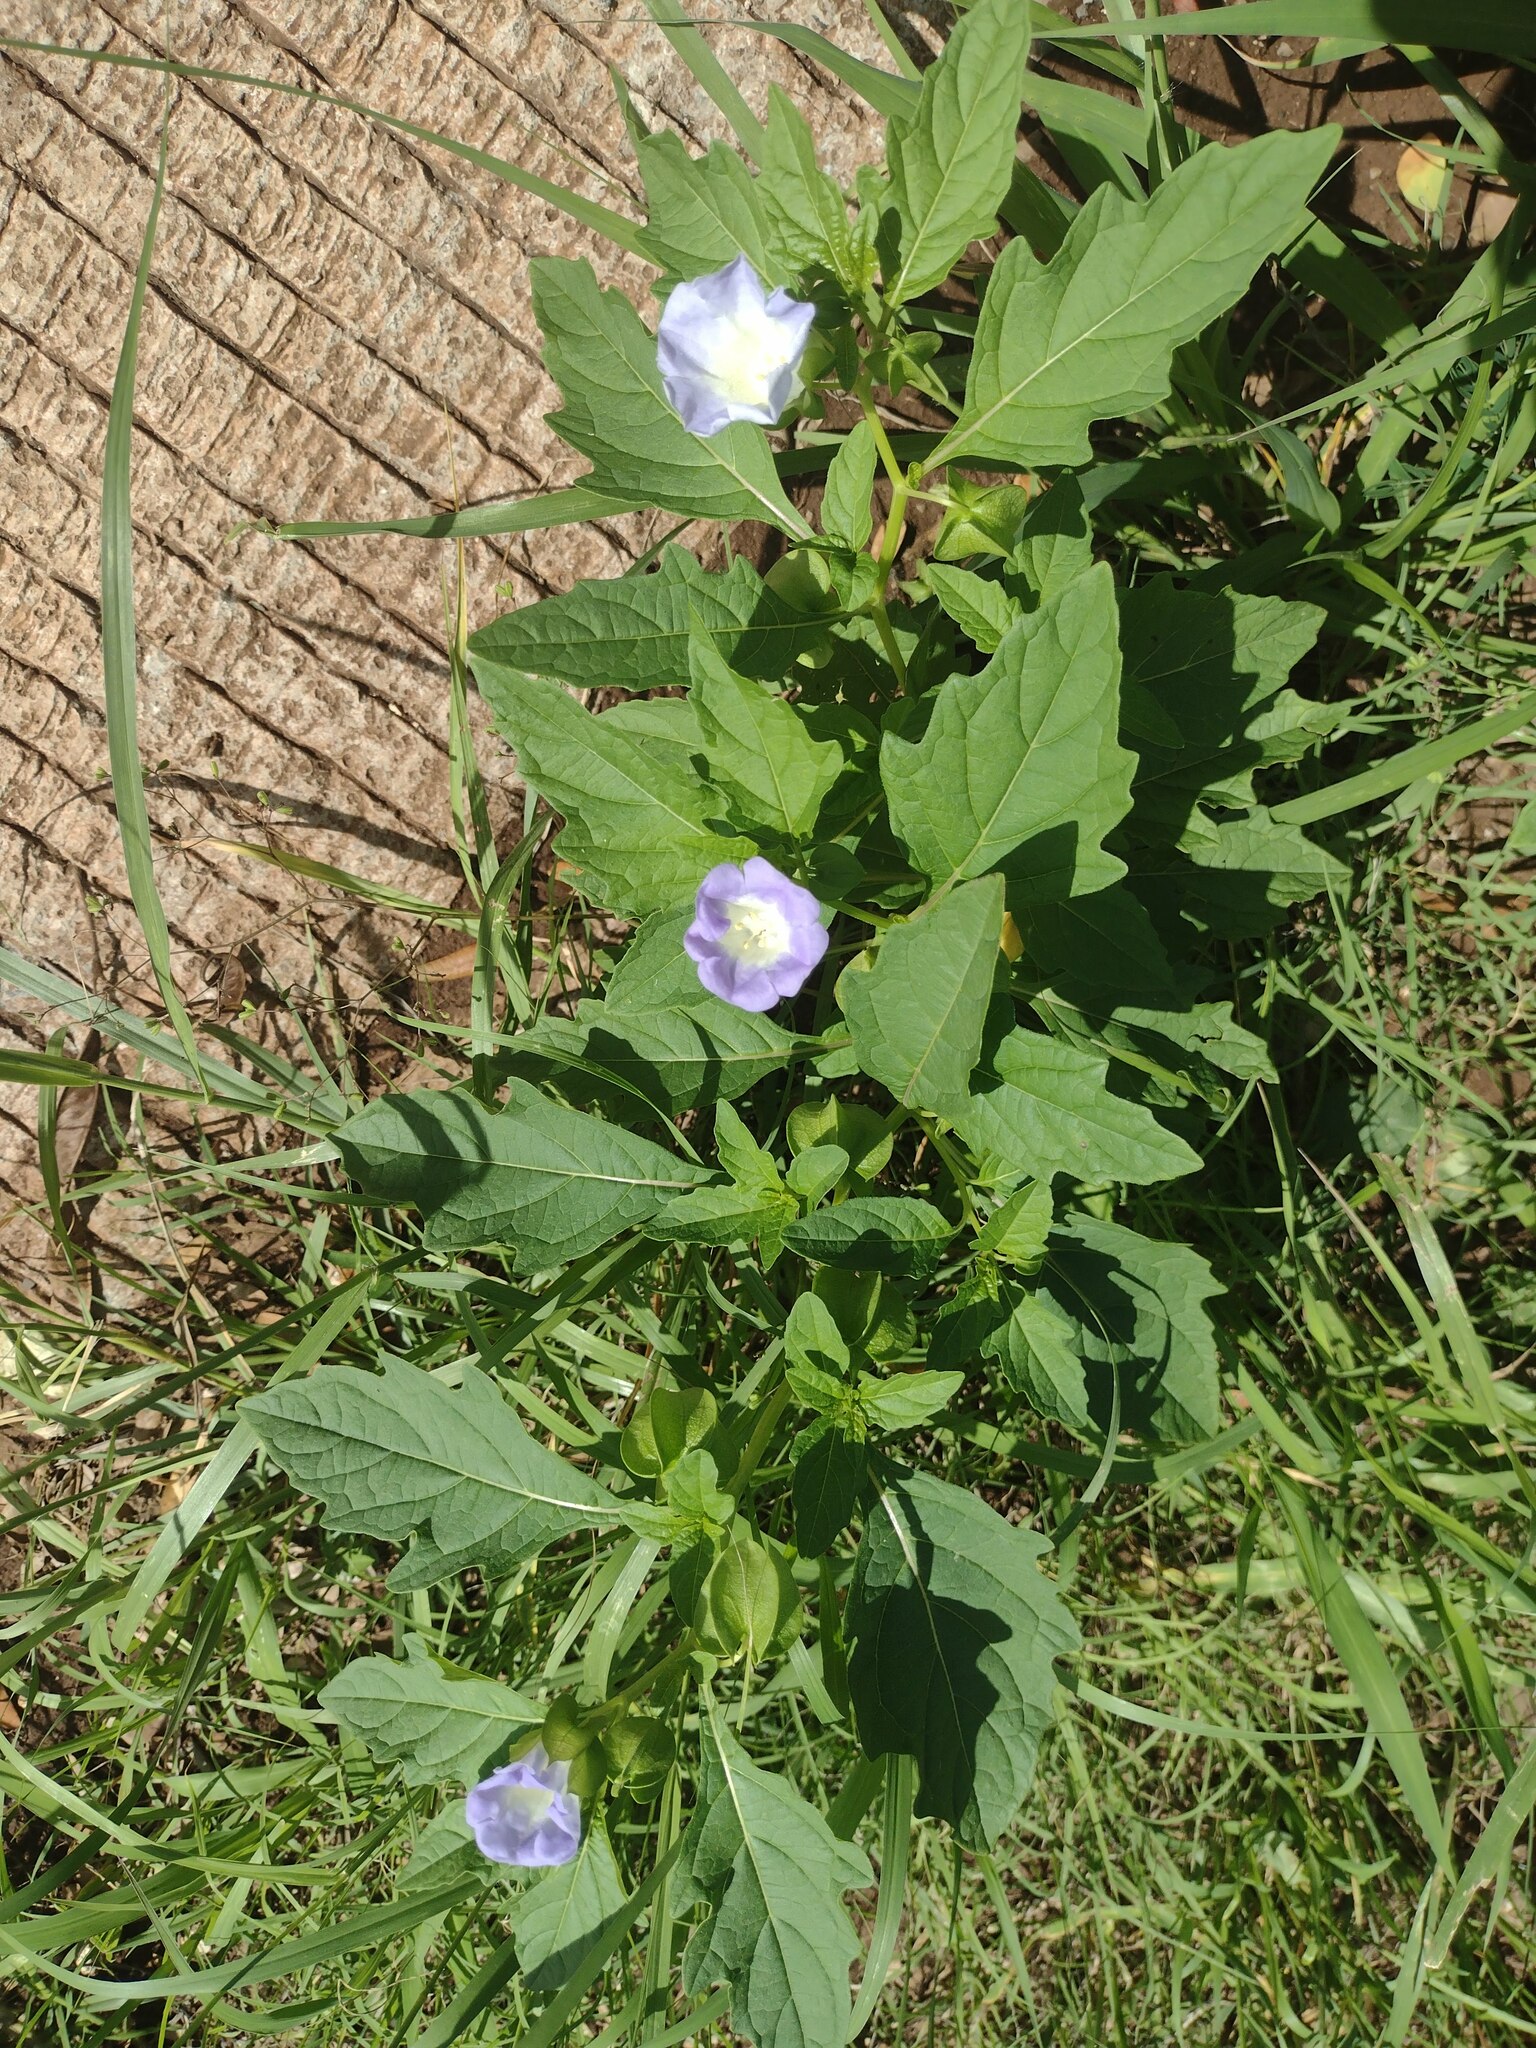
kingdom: Plantae
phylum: Tracheophyta
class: Magnoliopsida
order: Solanales
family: Solanaceae
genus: Nicandra
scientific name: Nicandra physalodes
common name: Apple-of-peru
